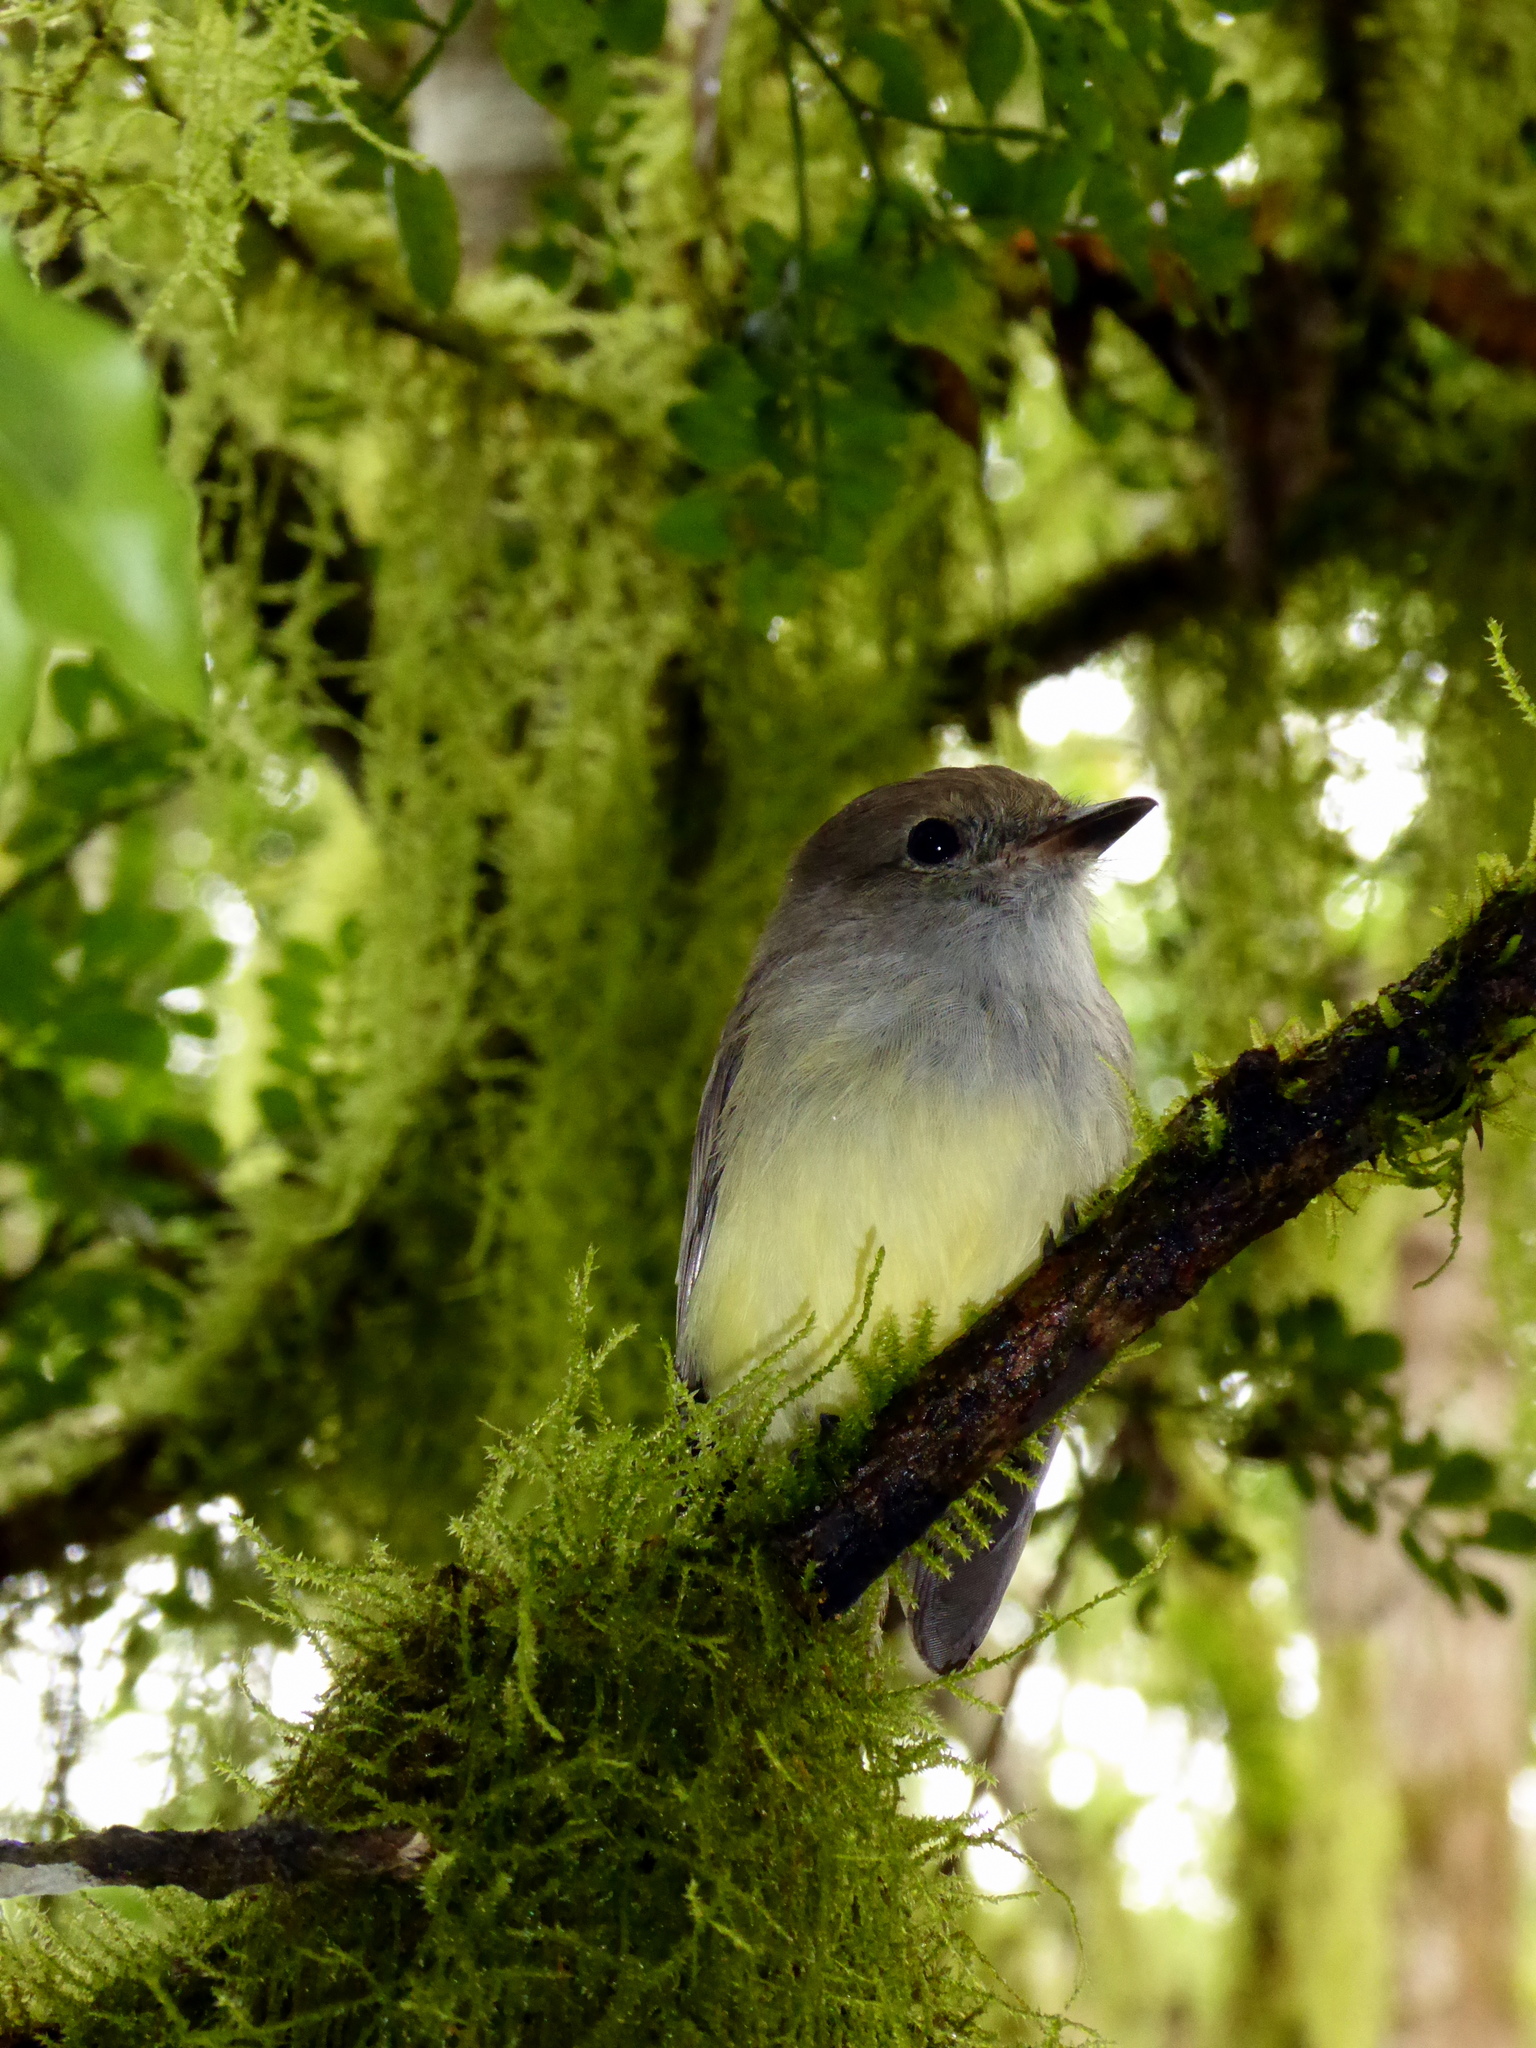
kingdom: Animalia
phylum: Chordata
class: Aves
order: Passeriformes
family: Tyrannidae
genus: Myiarchus
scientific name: Myiarchus magnirostris
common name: Galapagos flycatcher
